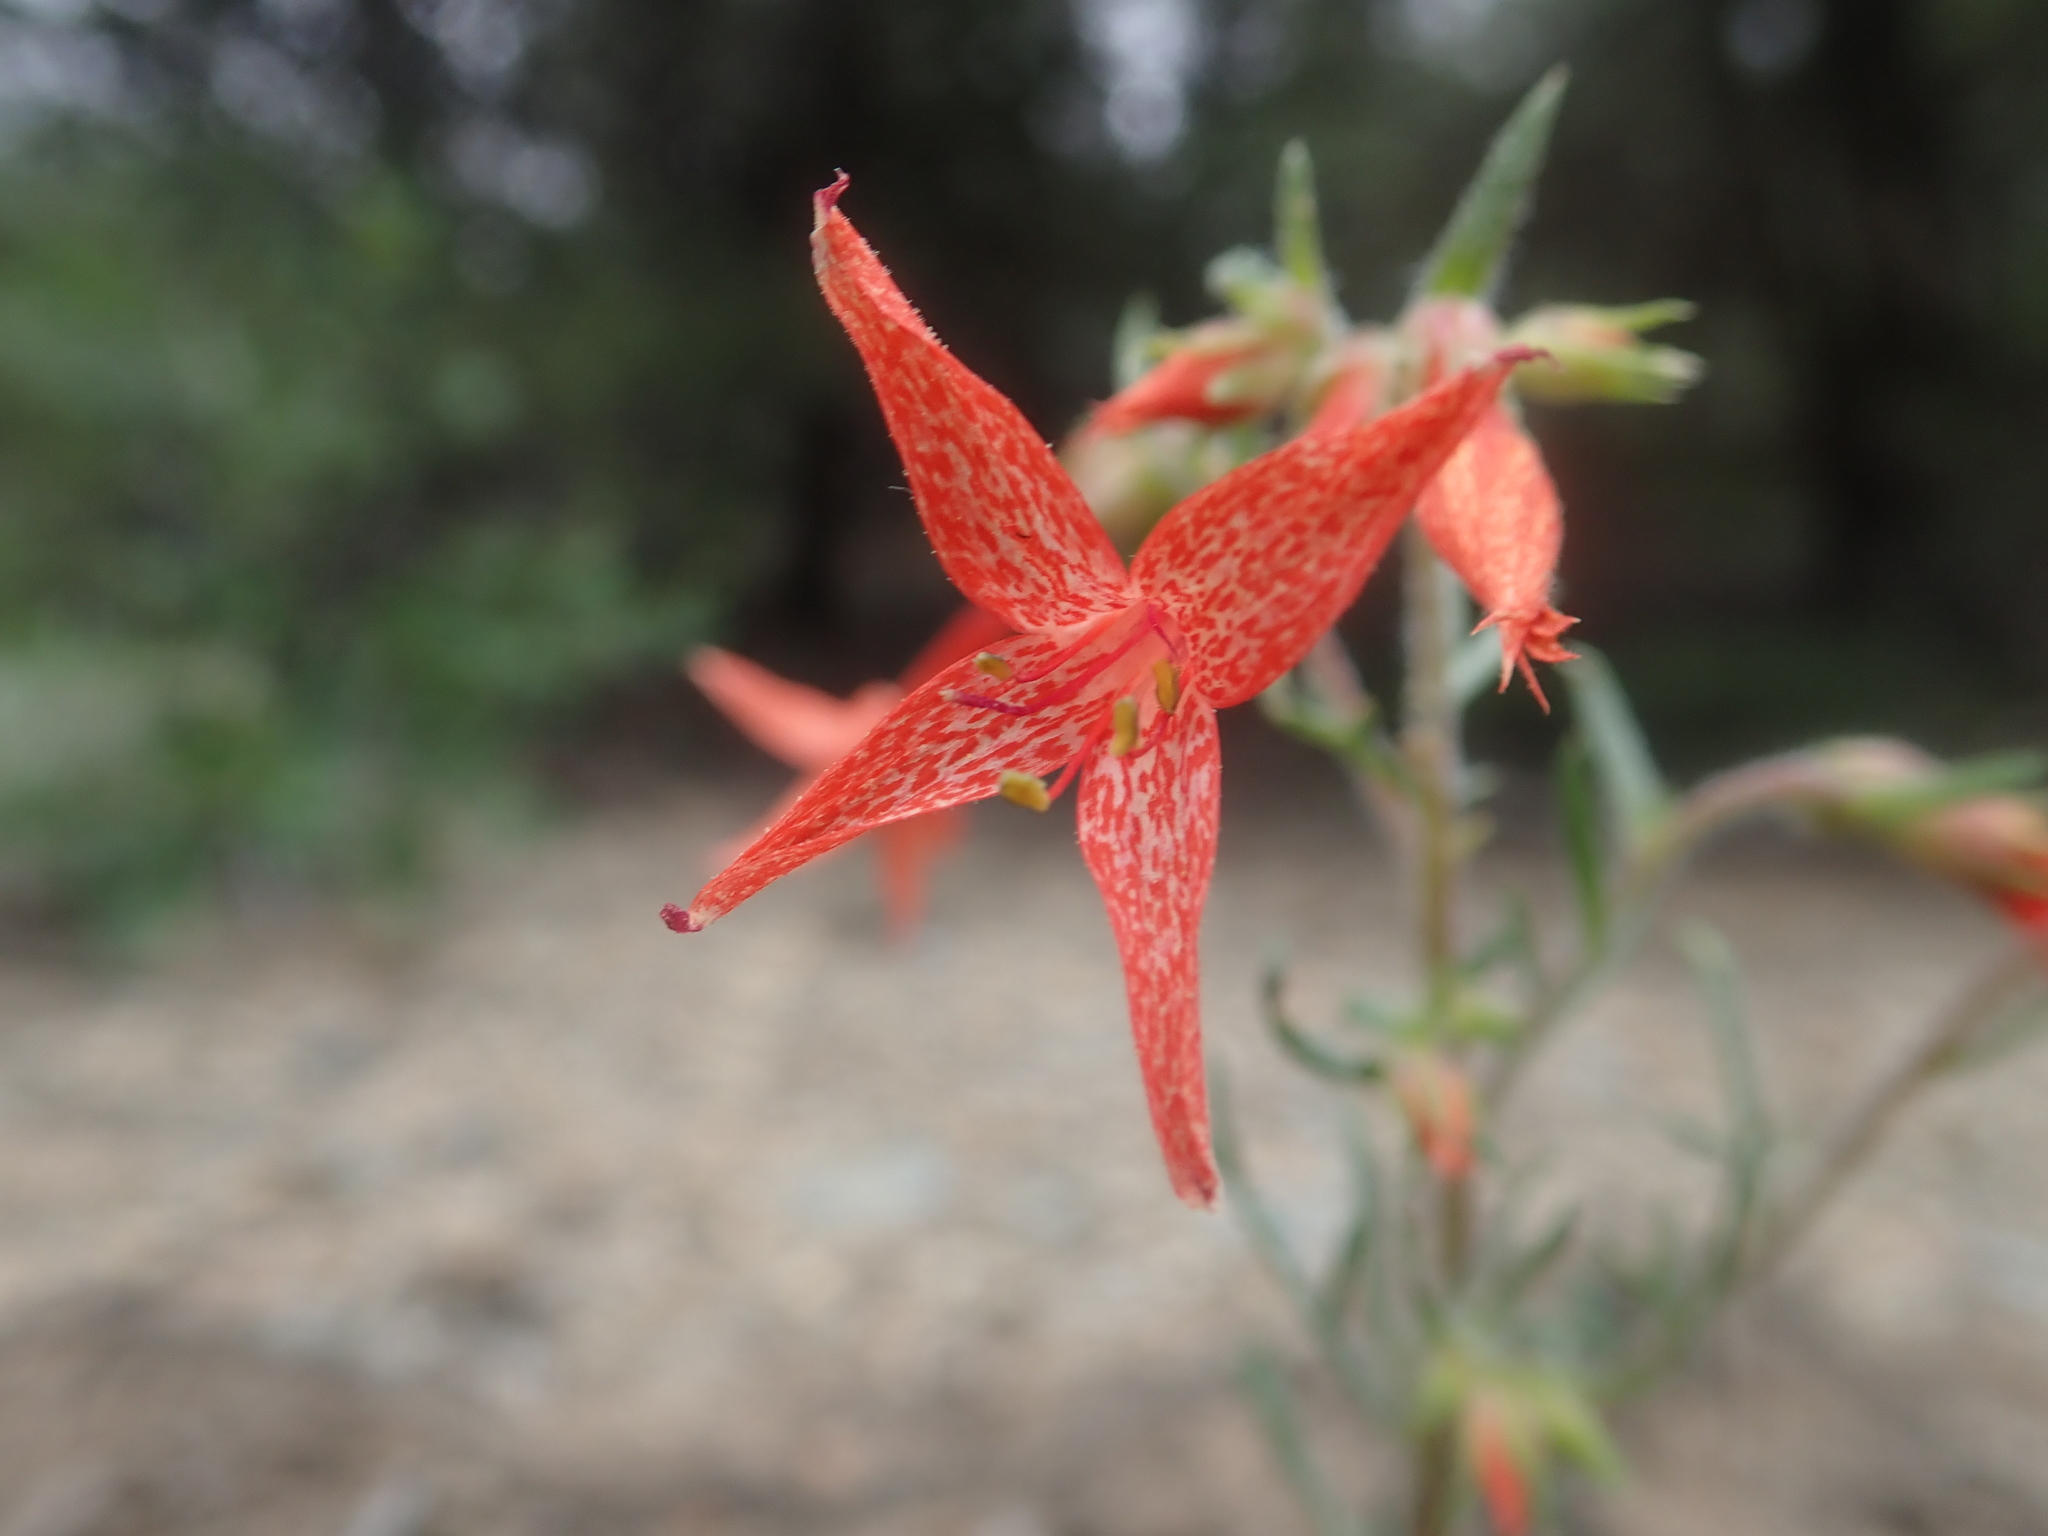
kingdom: Plantae
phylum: Tracheophyta
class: Magnoliopsida
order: Ericales
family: Polemoniaceae
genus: Ipomopsis
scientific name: Ipomopsis aggregata
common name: Scarlet gilia
